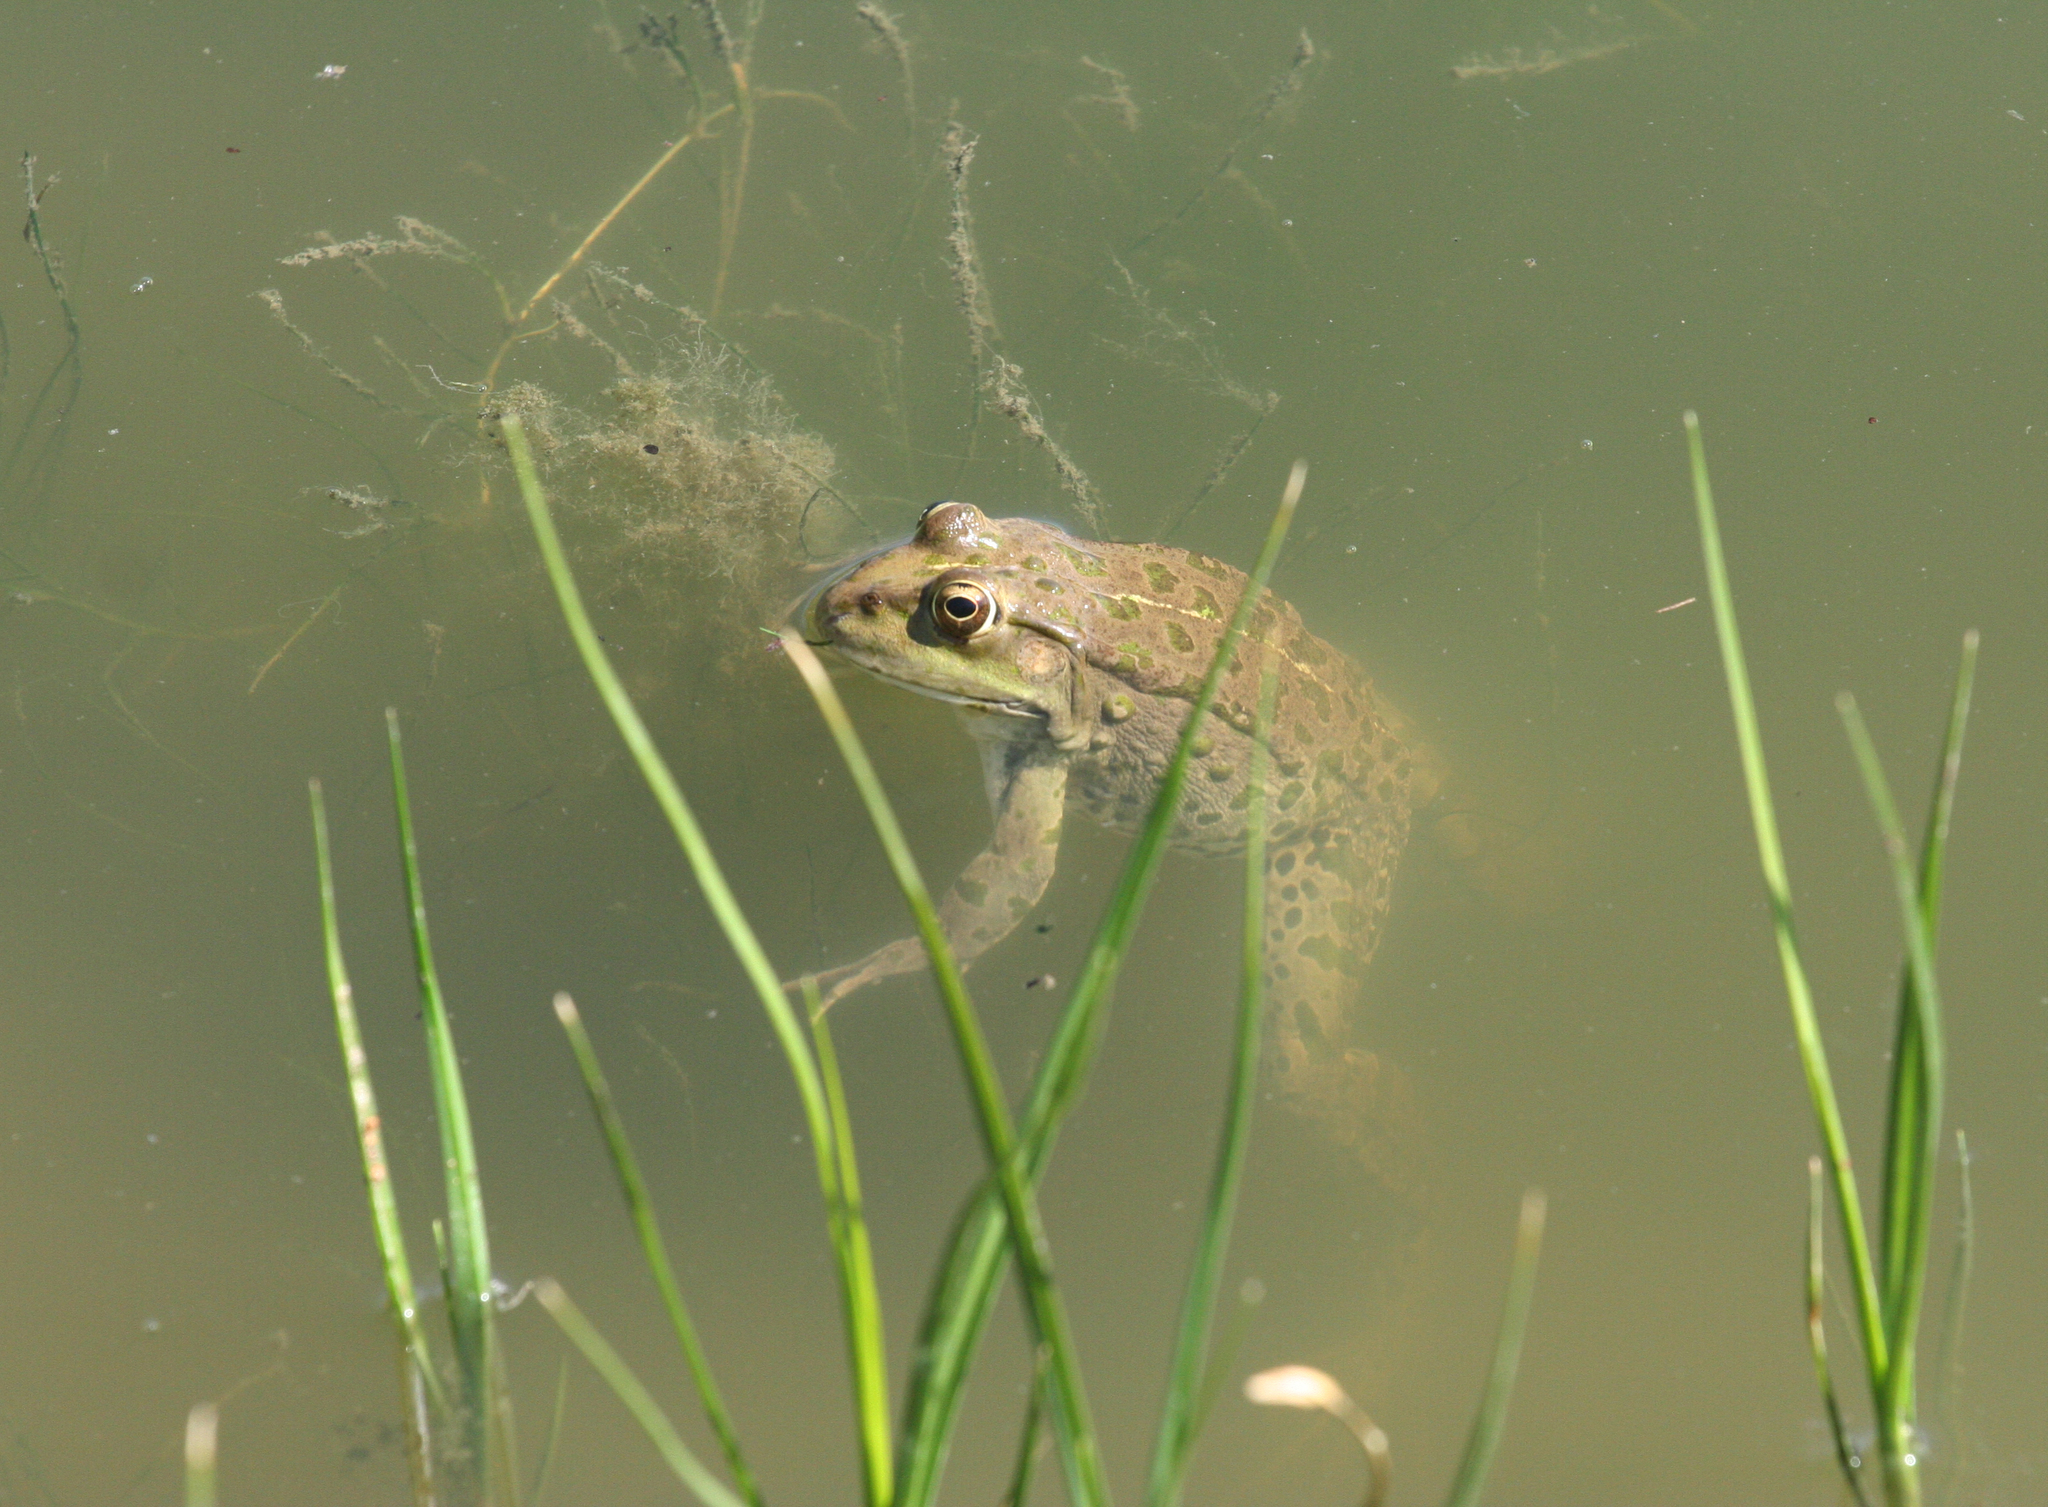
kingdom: Animalia
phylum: Chordata
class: Amphibia
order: Anura
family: Ranidae
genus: Pelophylax
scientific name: Pelophylax ridibundus
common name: Marsh frog
